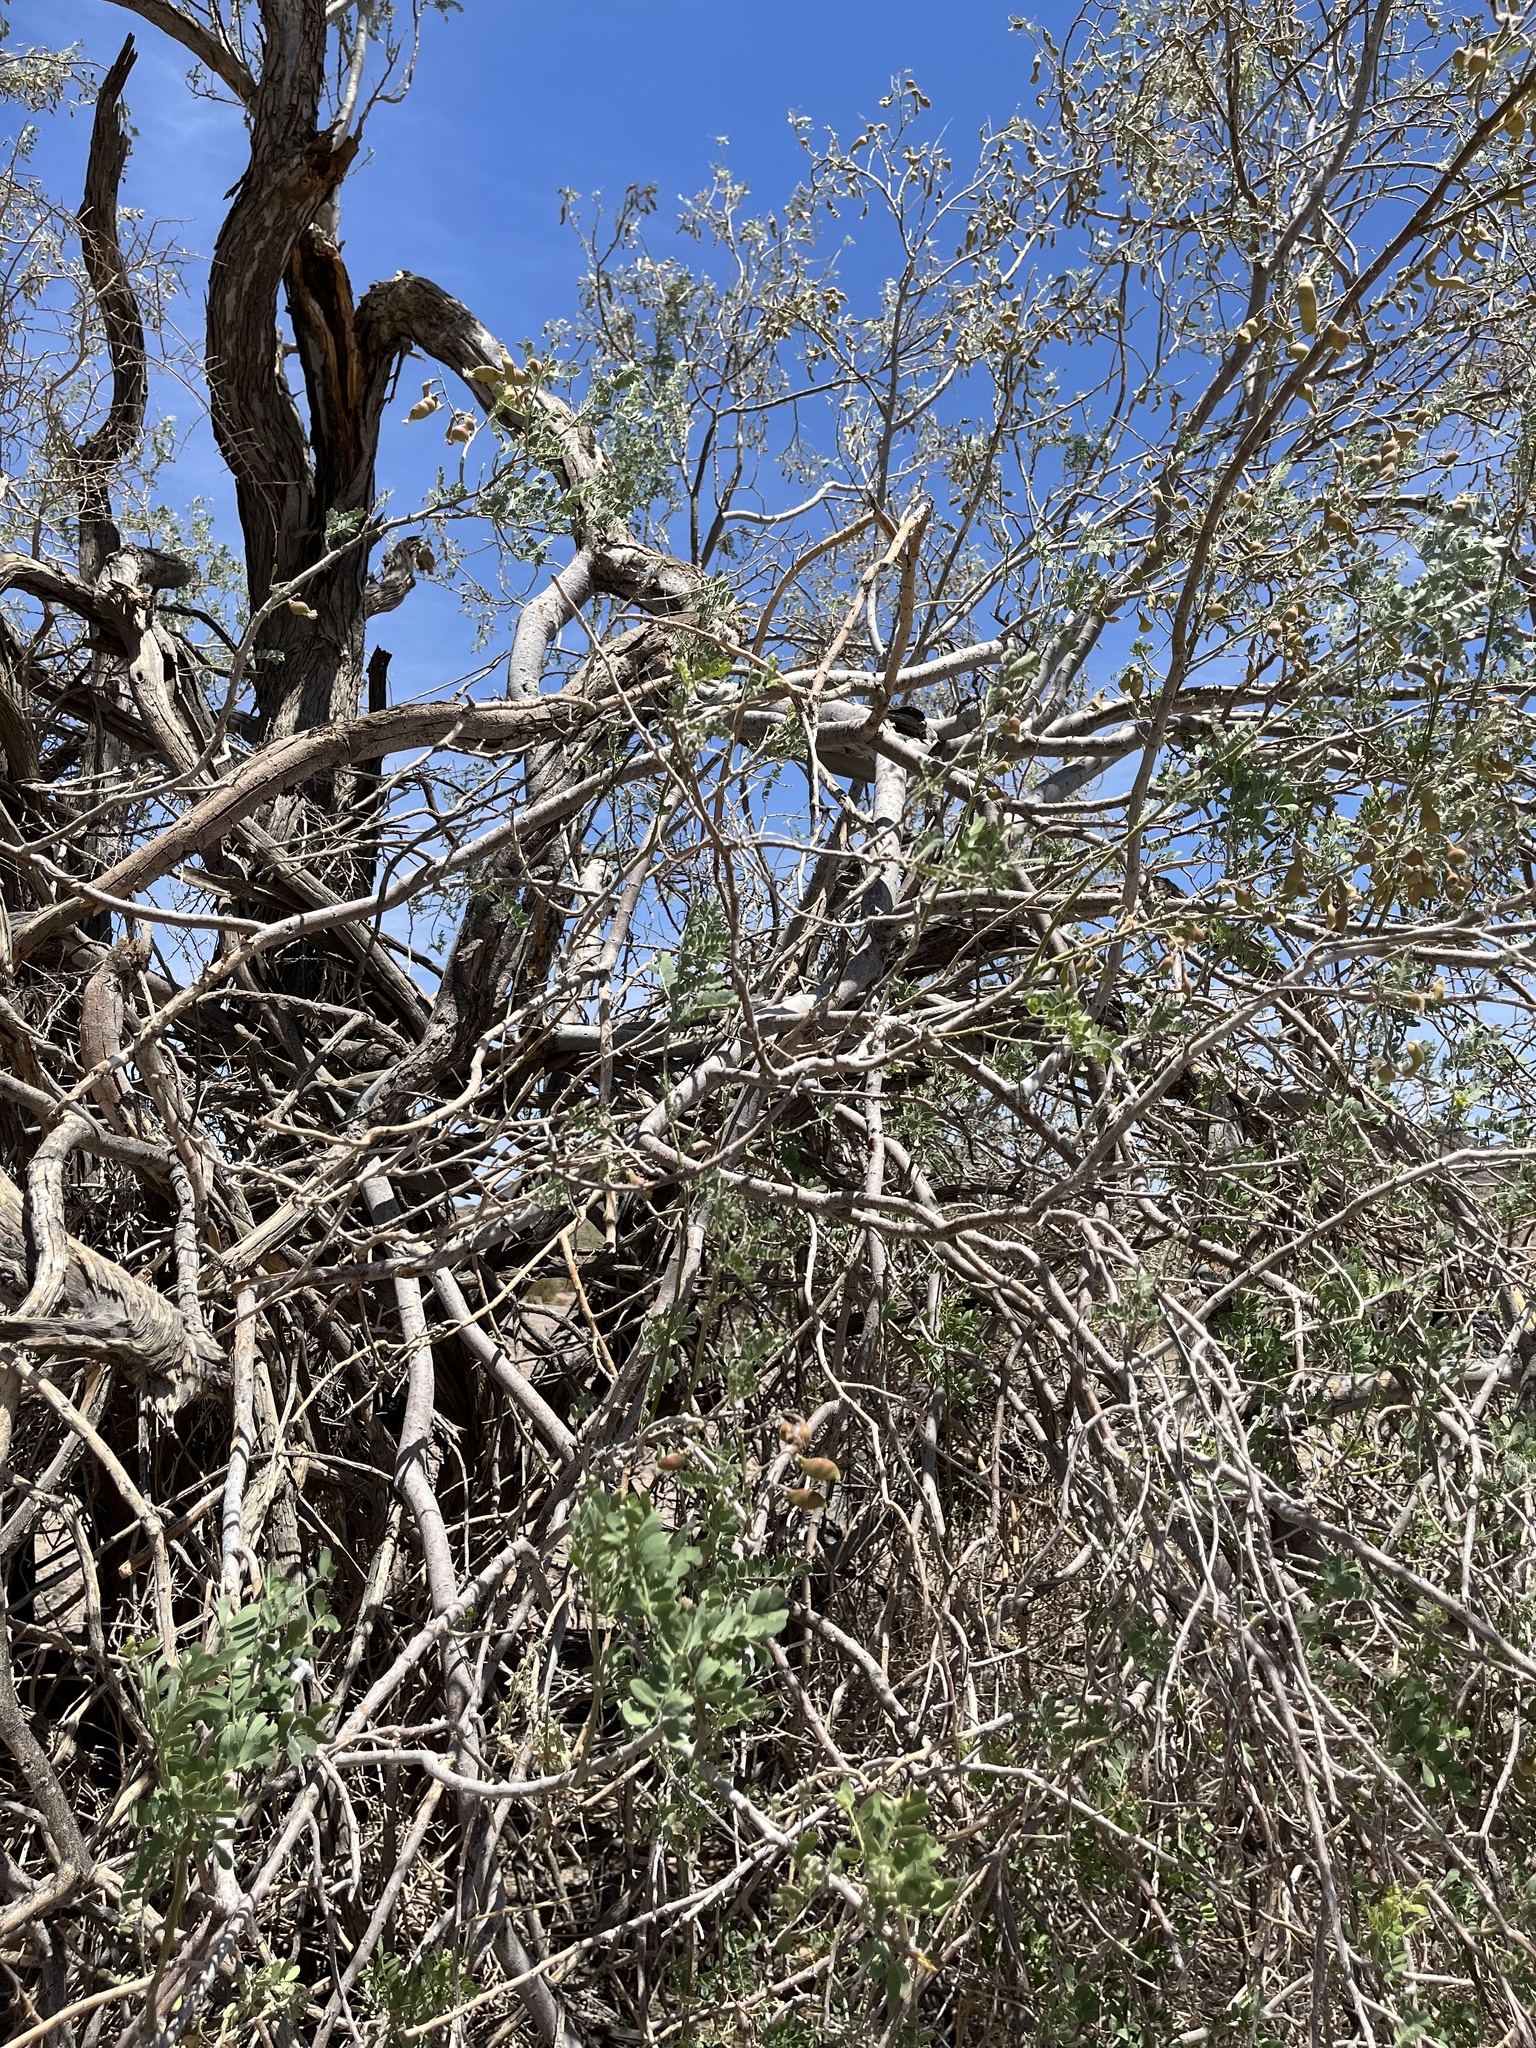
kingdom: Plantae
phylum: Tracheophyta
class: Magnoliopsida
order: Fabales
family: Fabaceae
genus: Olneya
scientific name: Olneya tesota
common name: Desert ironwood
